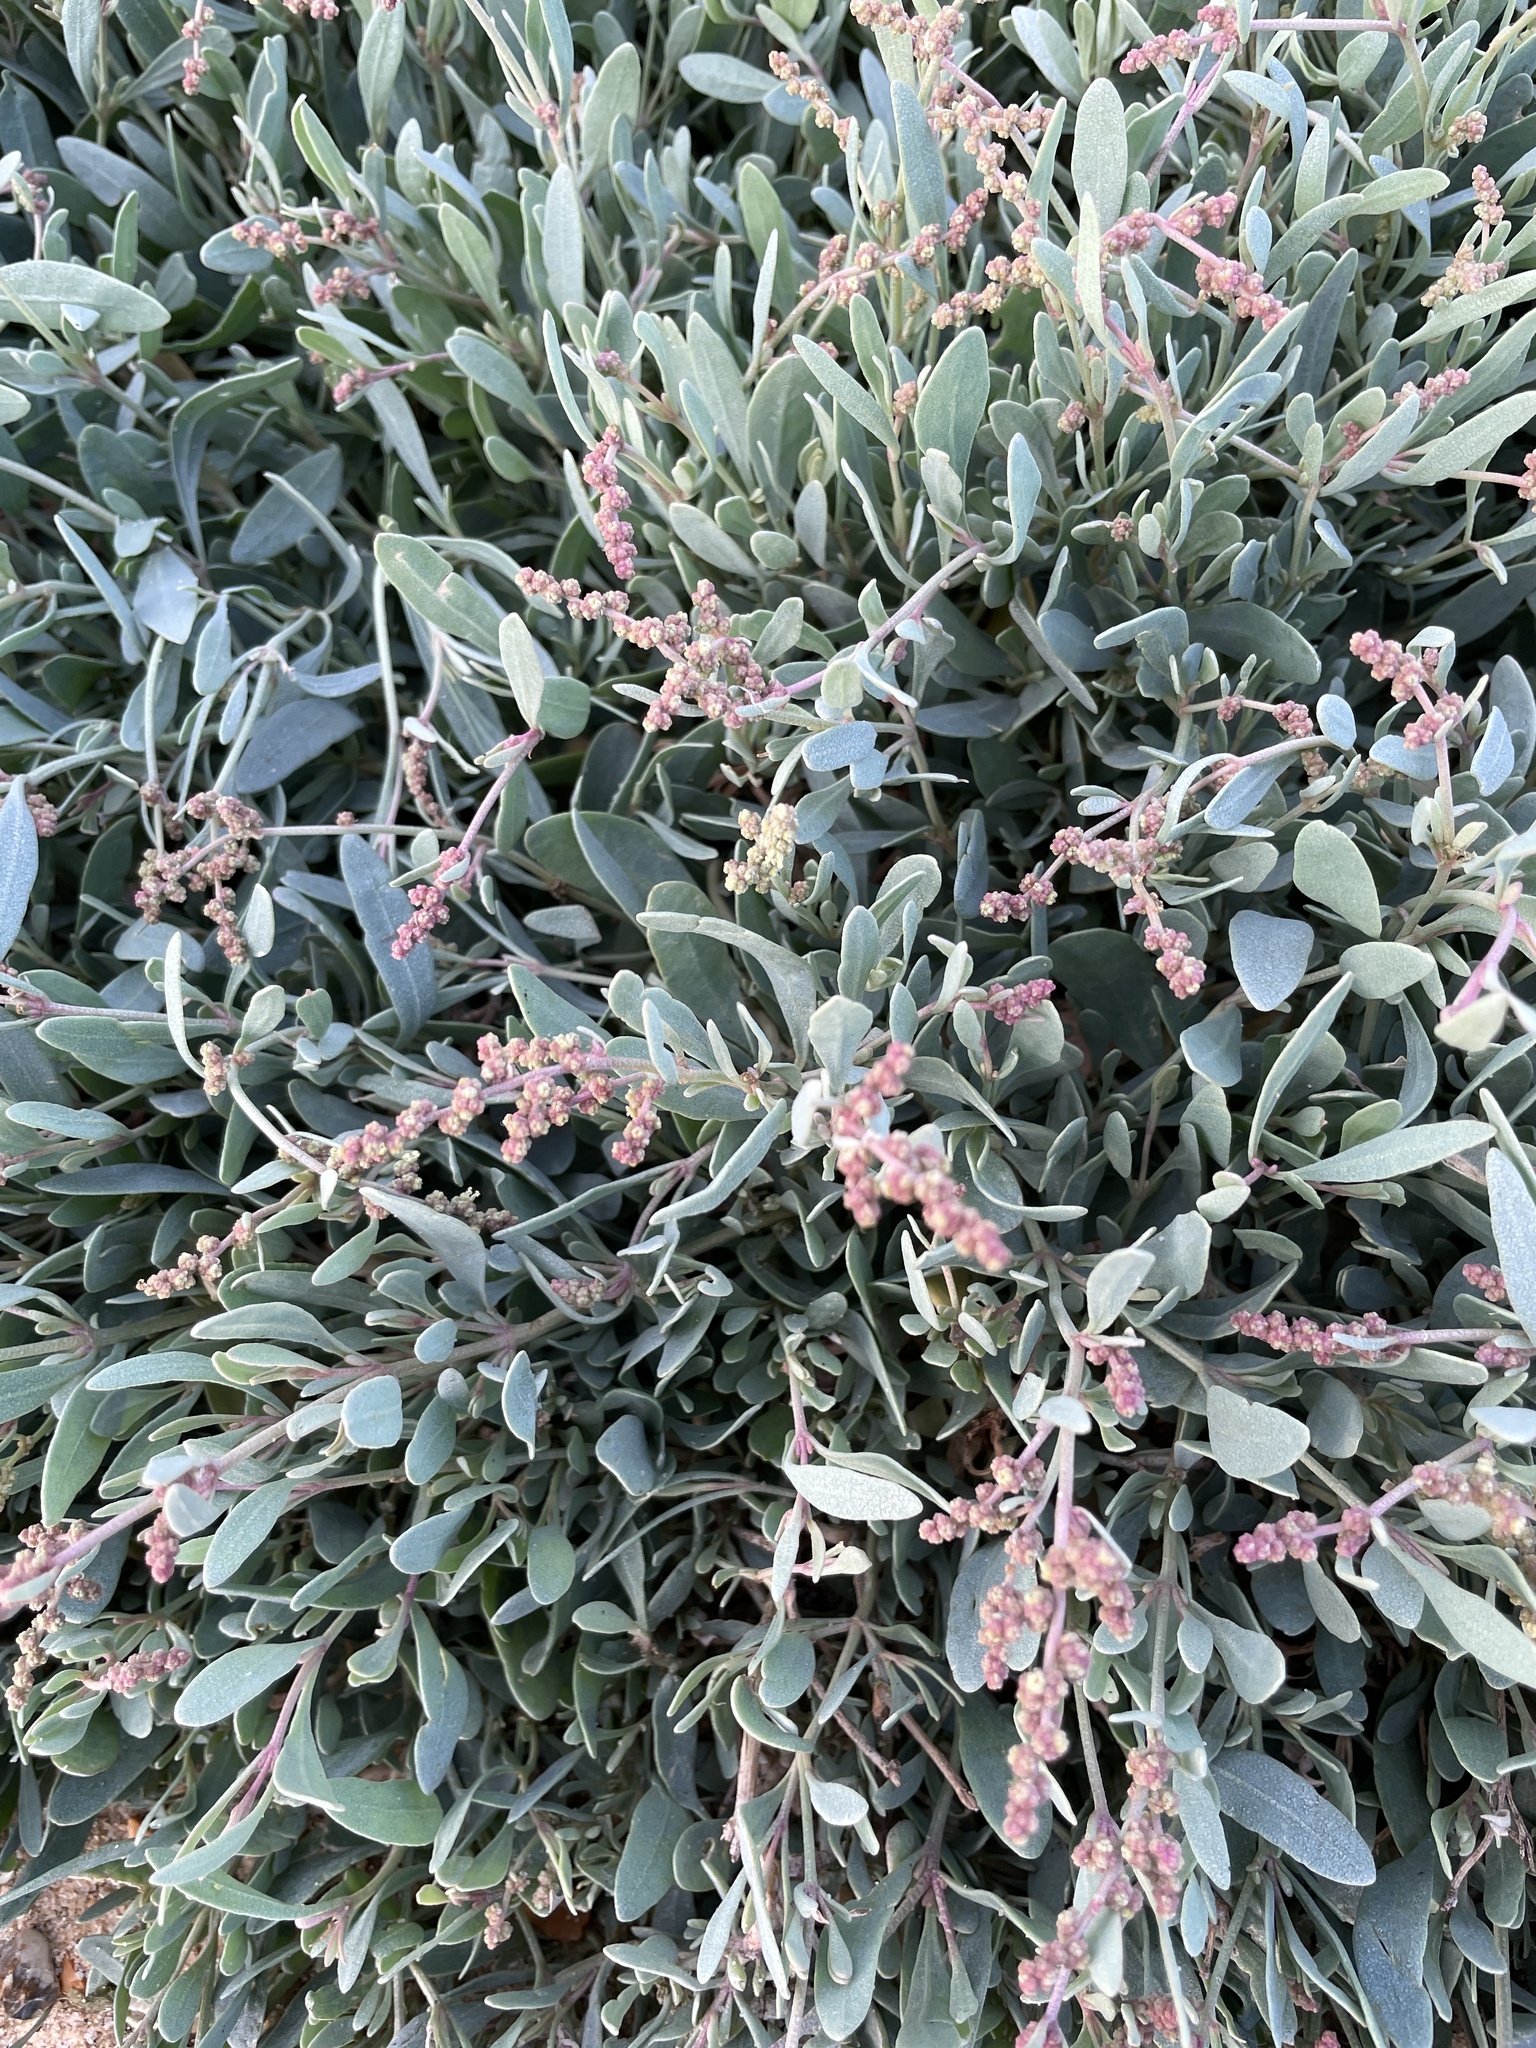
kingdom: Plantae
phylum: Tracheophyta
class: Magnoliopsida
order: Caryophyllales
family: Amaranthaceae
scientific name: Amaranthaceae
